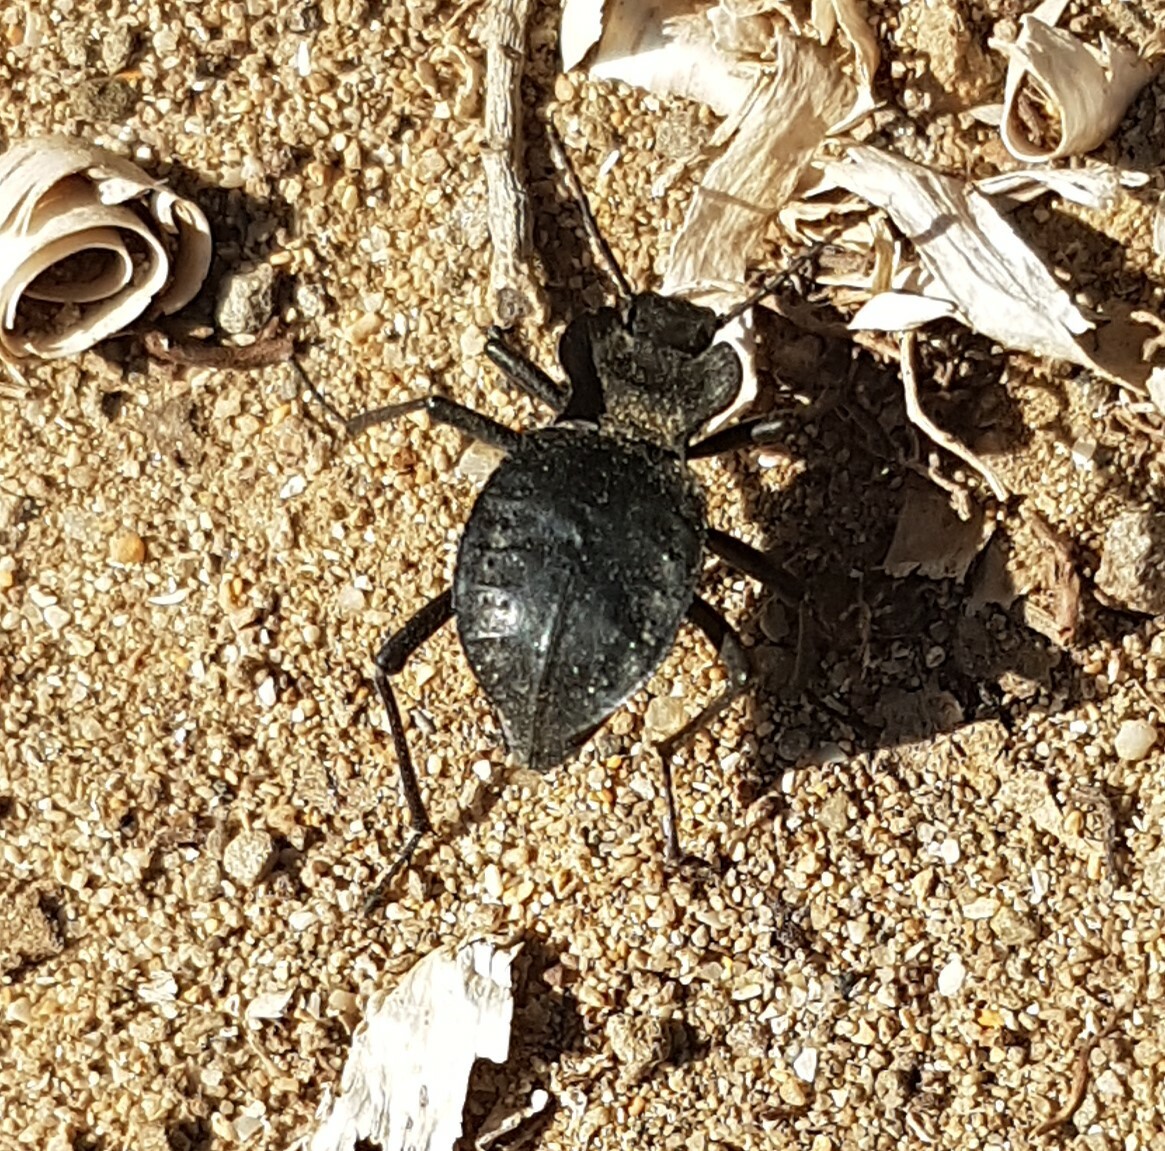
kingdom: Animalia
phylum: Arthropoda
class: Insecta
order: Coleoptera
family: Tenebrionidae
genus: Akis
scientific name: Akis bacarozzo
